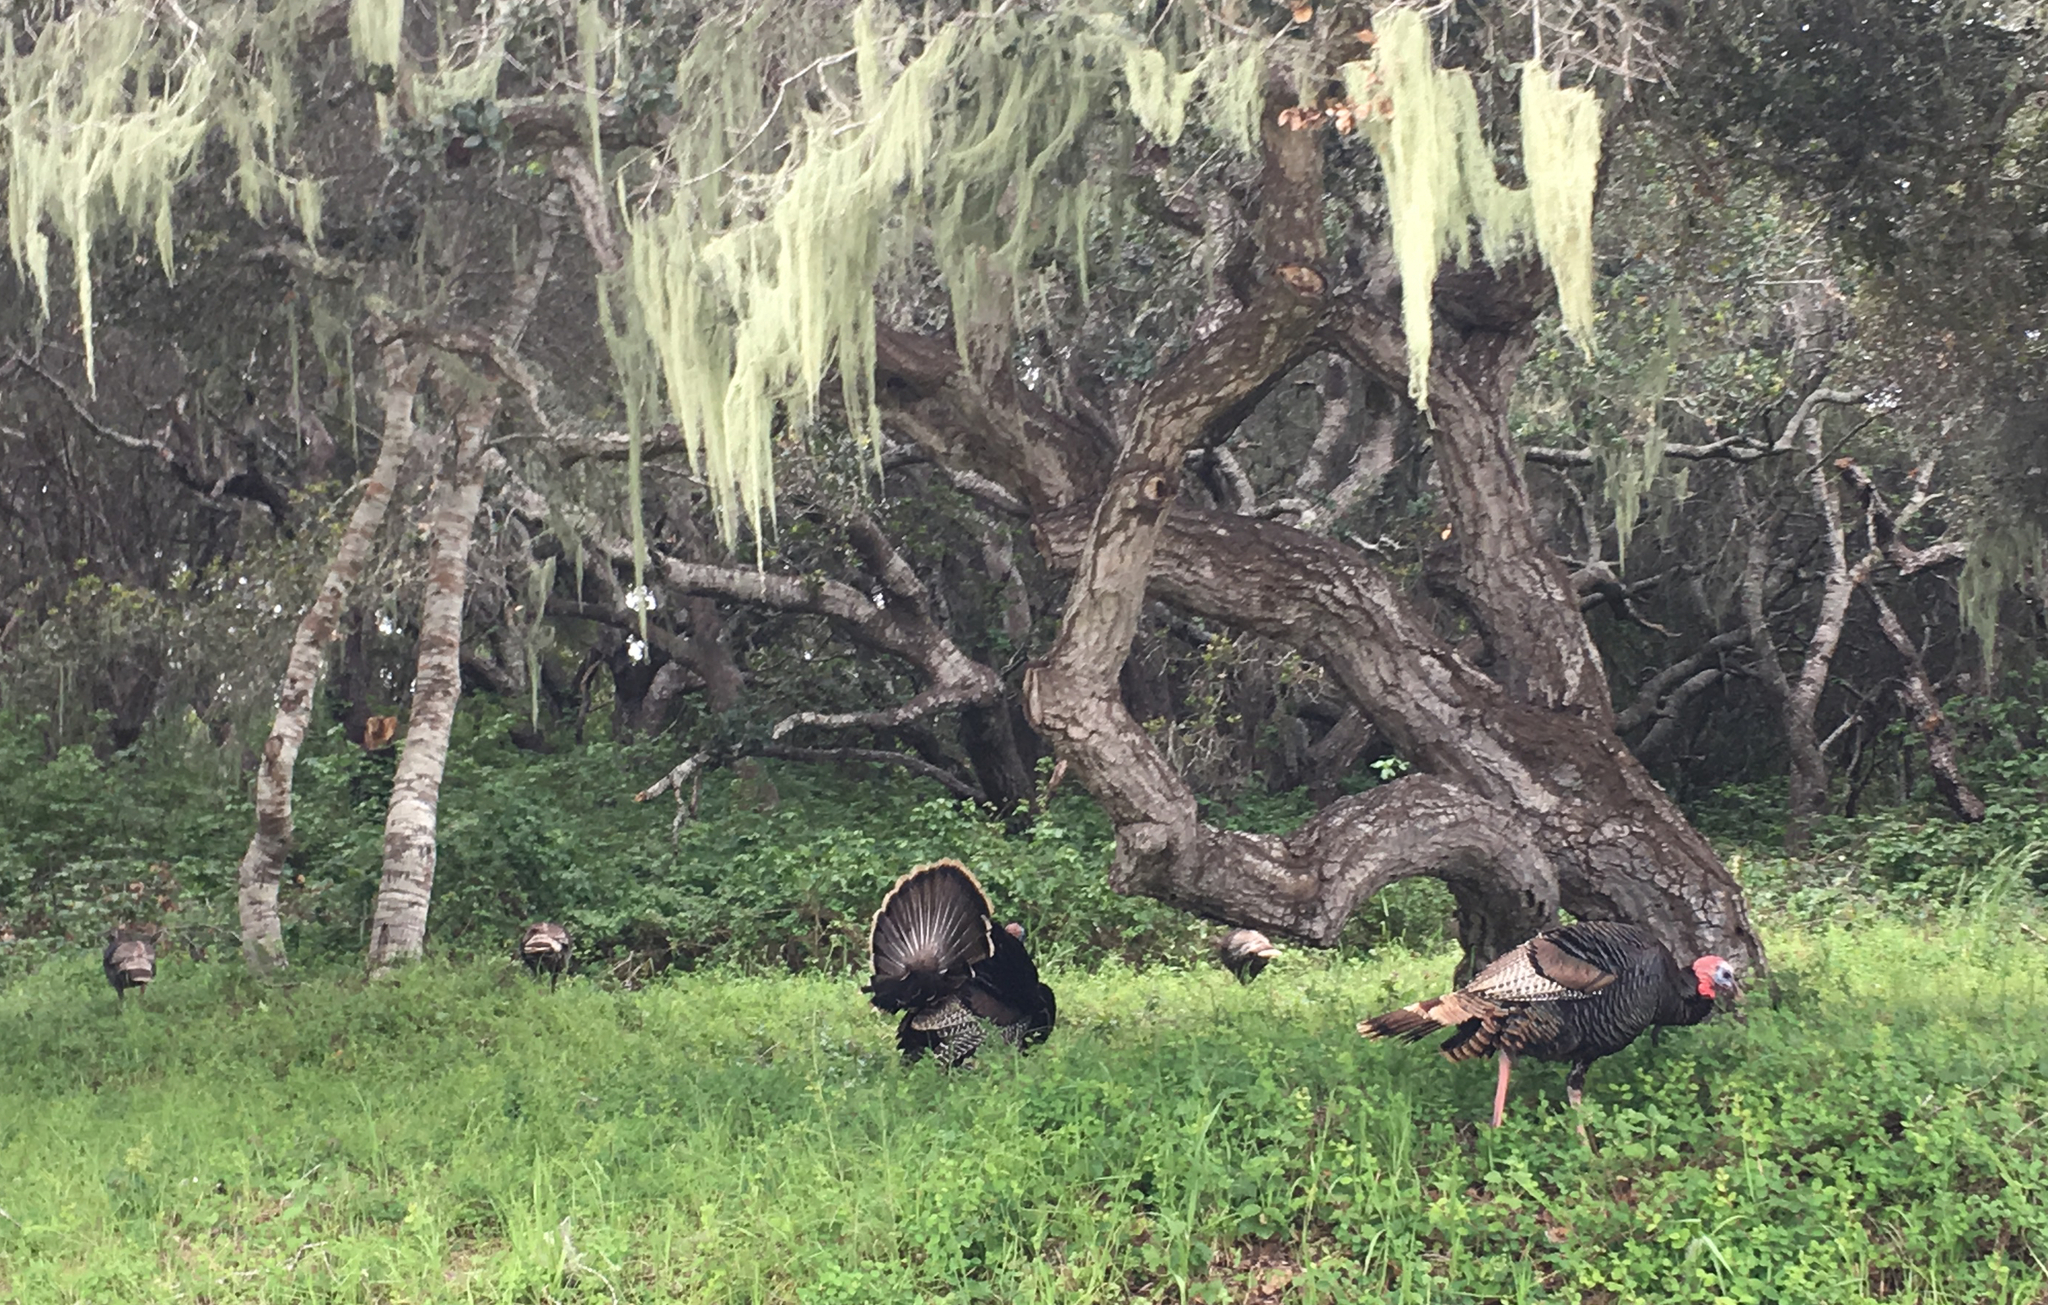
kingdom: Animalia
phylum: Chordata
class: Aves
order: Galliformes
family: Phasianidae
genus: Meleagris
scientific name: Meleagris gallopavo
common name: Wild turkey
